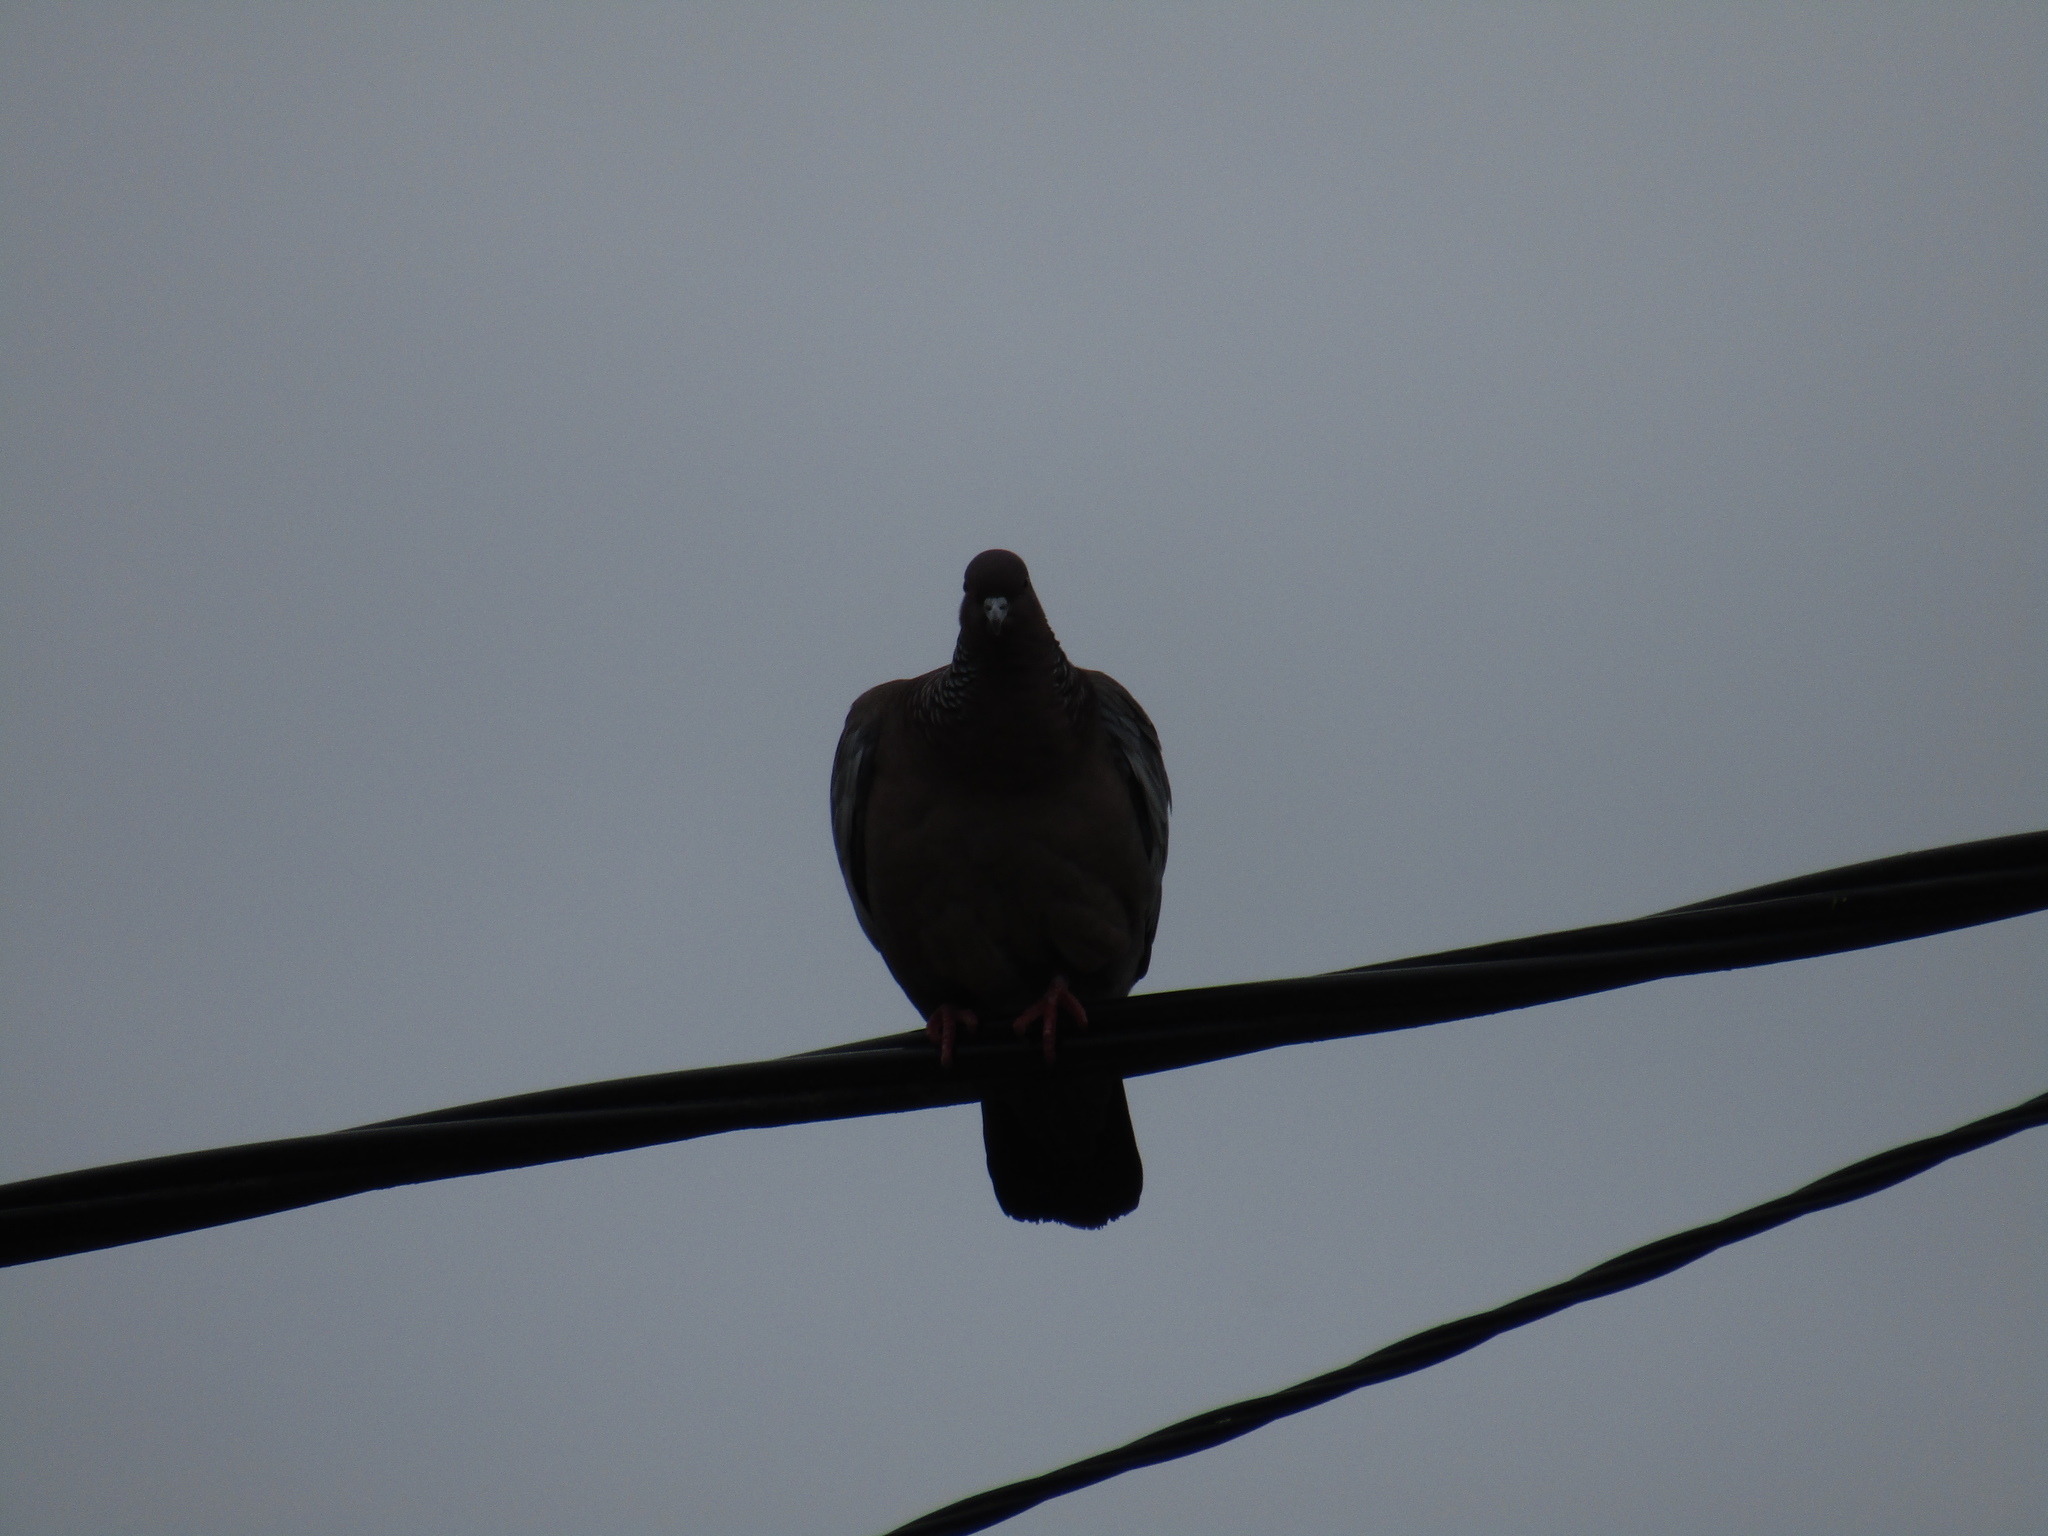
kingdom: Animalia
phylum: Chordata
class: Aves
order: Columbiformes
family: Columbidae
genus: Patagioenas
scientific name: Patagioenas picazuro
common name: Picazuro pigeon
